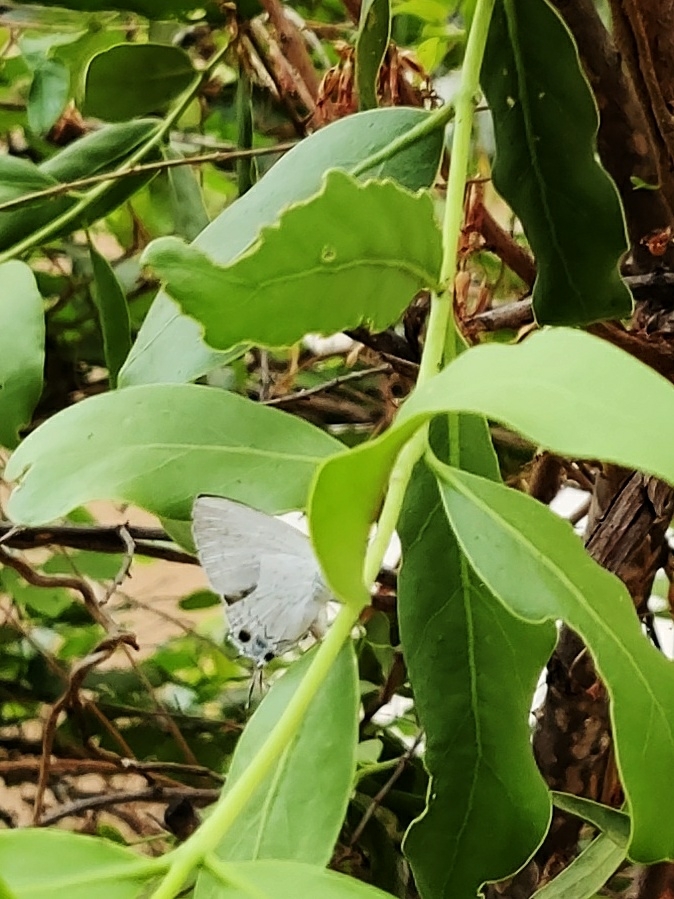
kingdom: Animalia
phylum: Arthropoda
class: Insecta
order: Lepidoptera
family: Lycaenidae
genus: Tajuria
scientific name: Tajuria cippus
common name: Peacock royal
